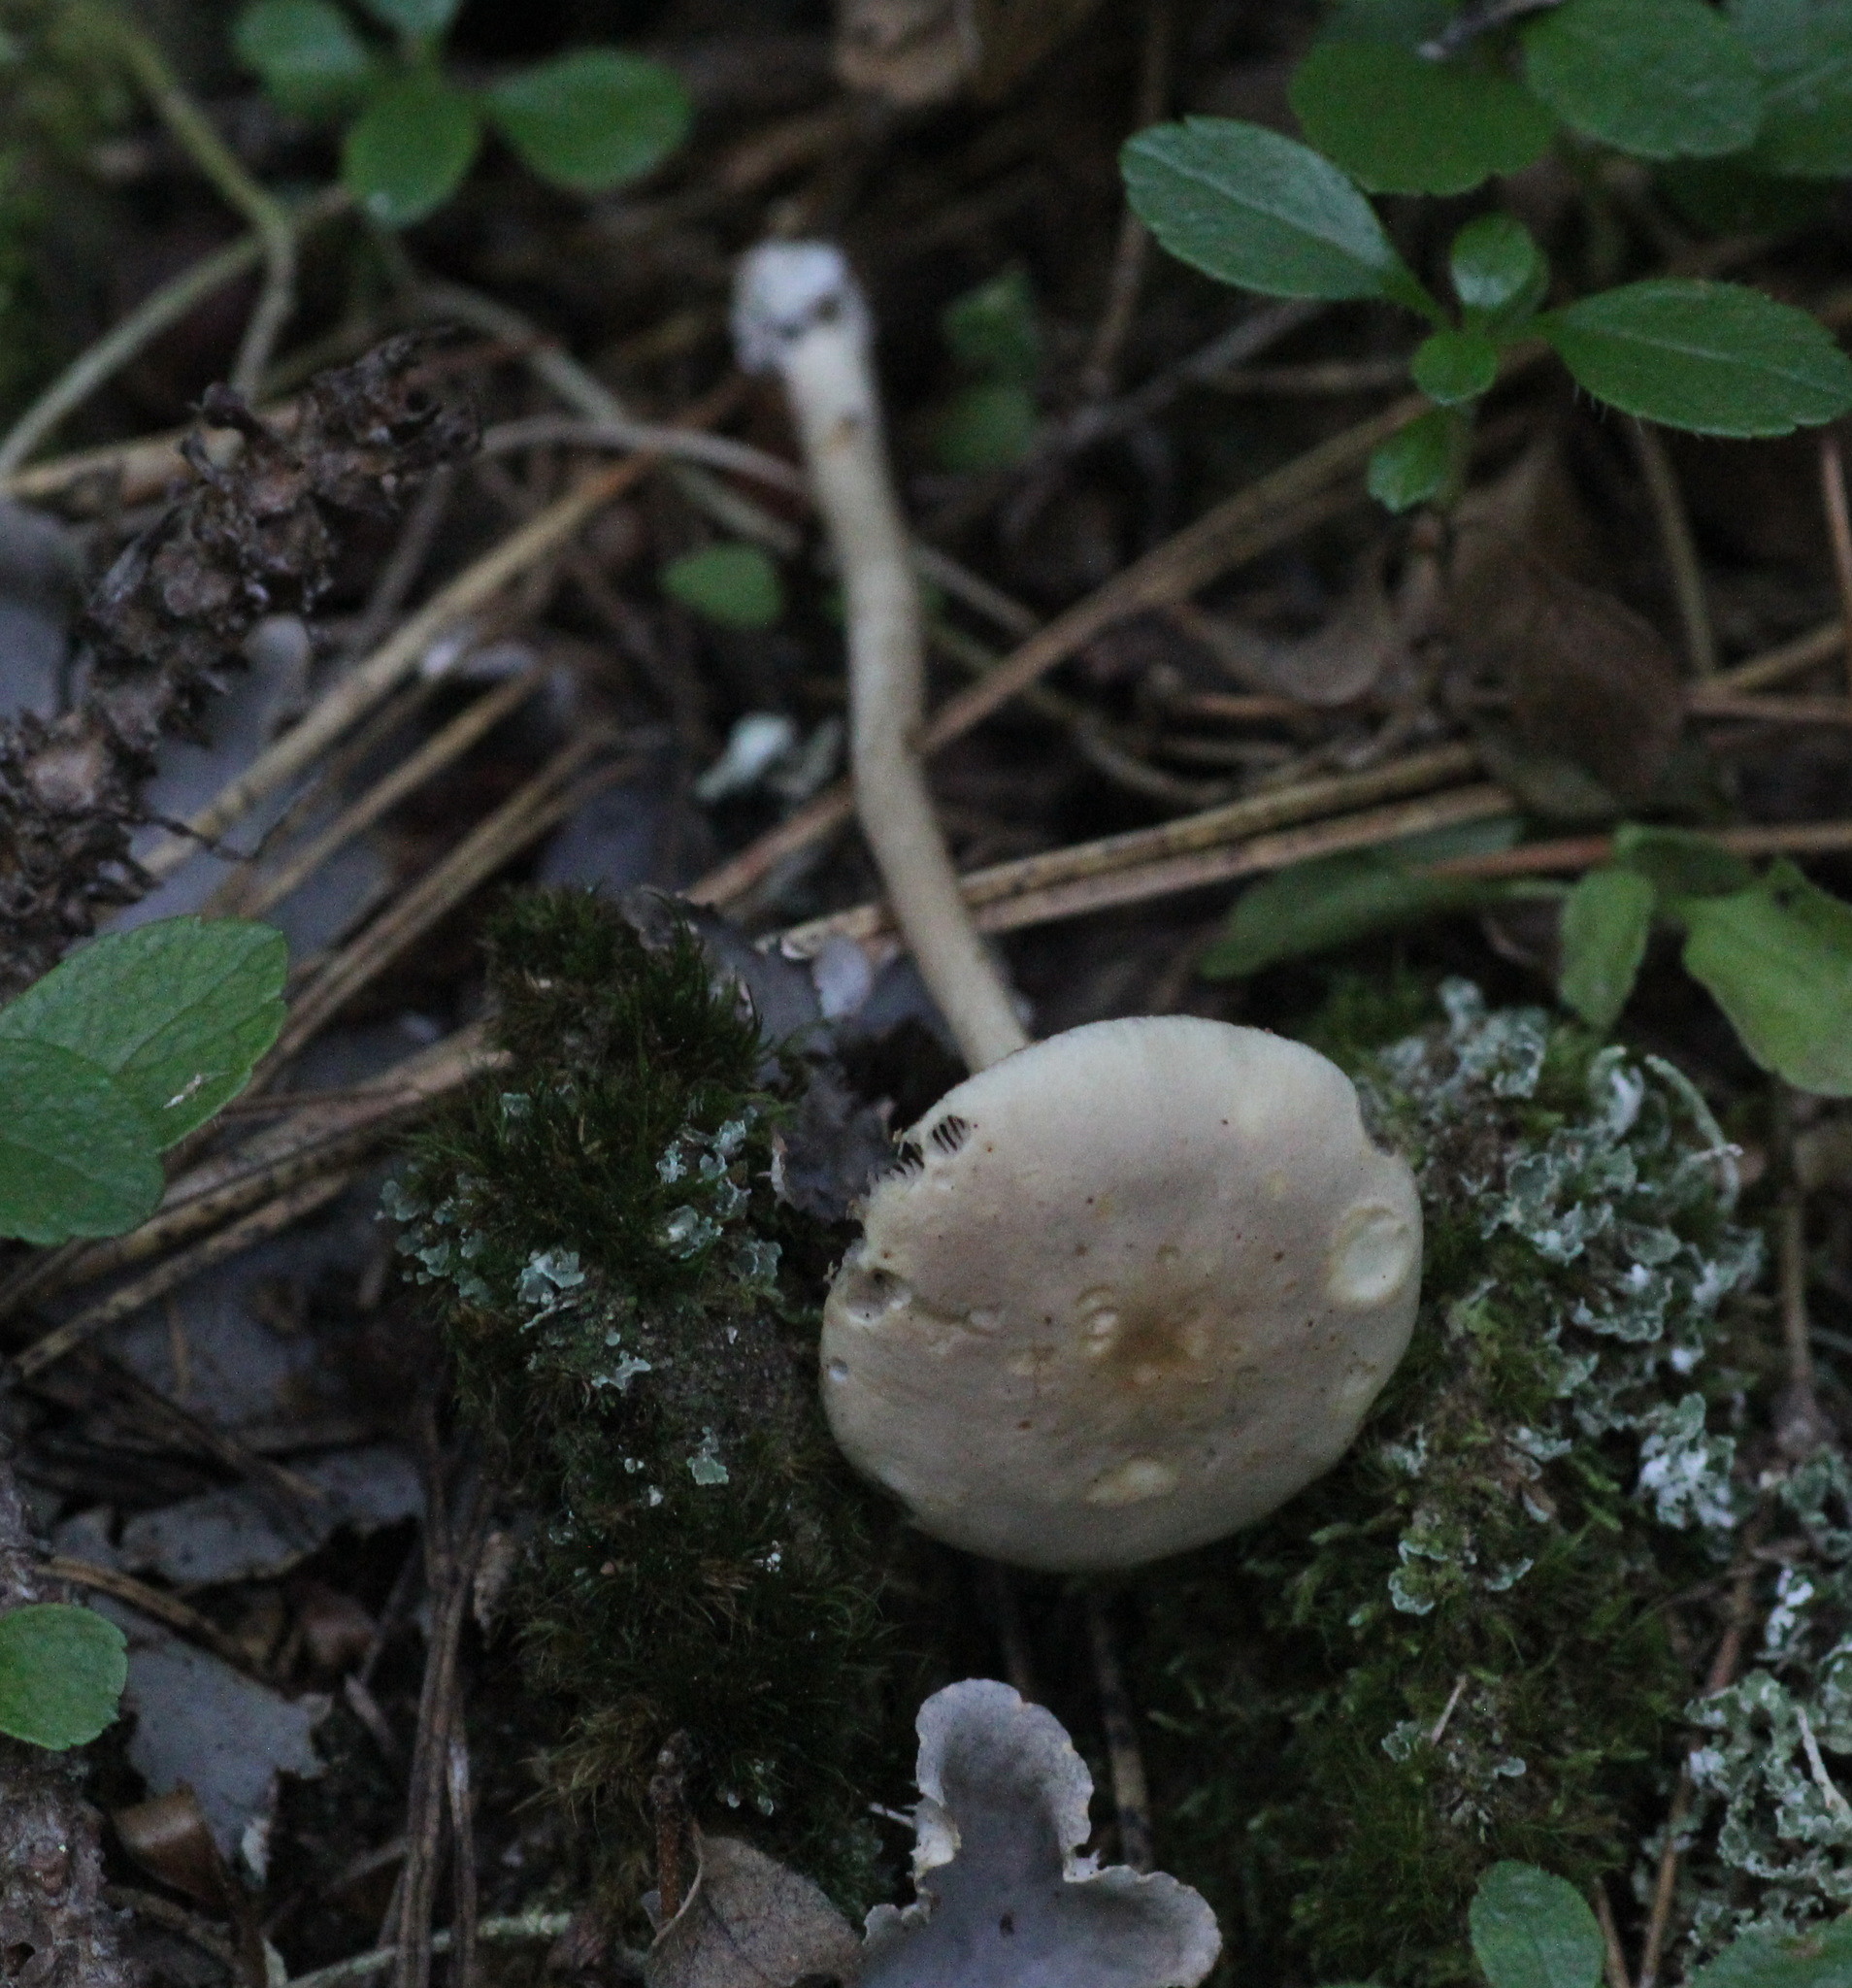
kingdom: Fungi
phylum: Basidiomycota
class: Agaricomycetes
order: Agaricales
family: Strophariaceae
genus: Agrocybe
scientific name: Agrocybe praecox
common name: Spring fieldcap
